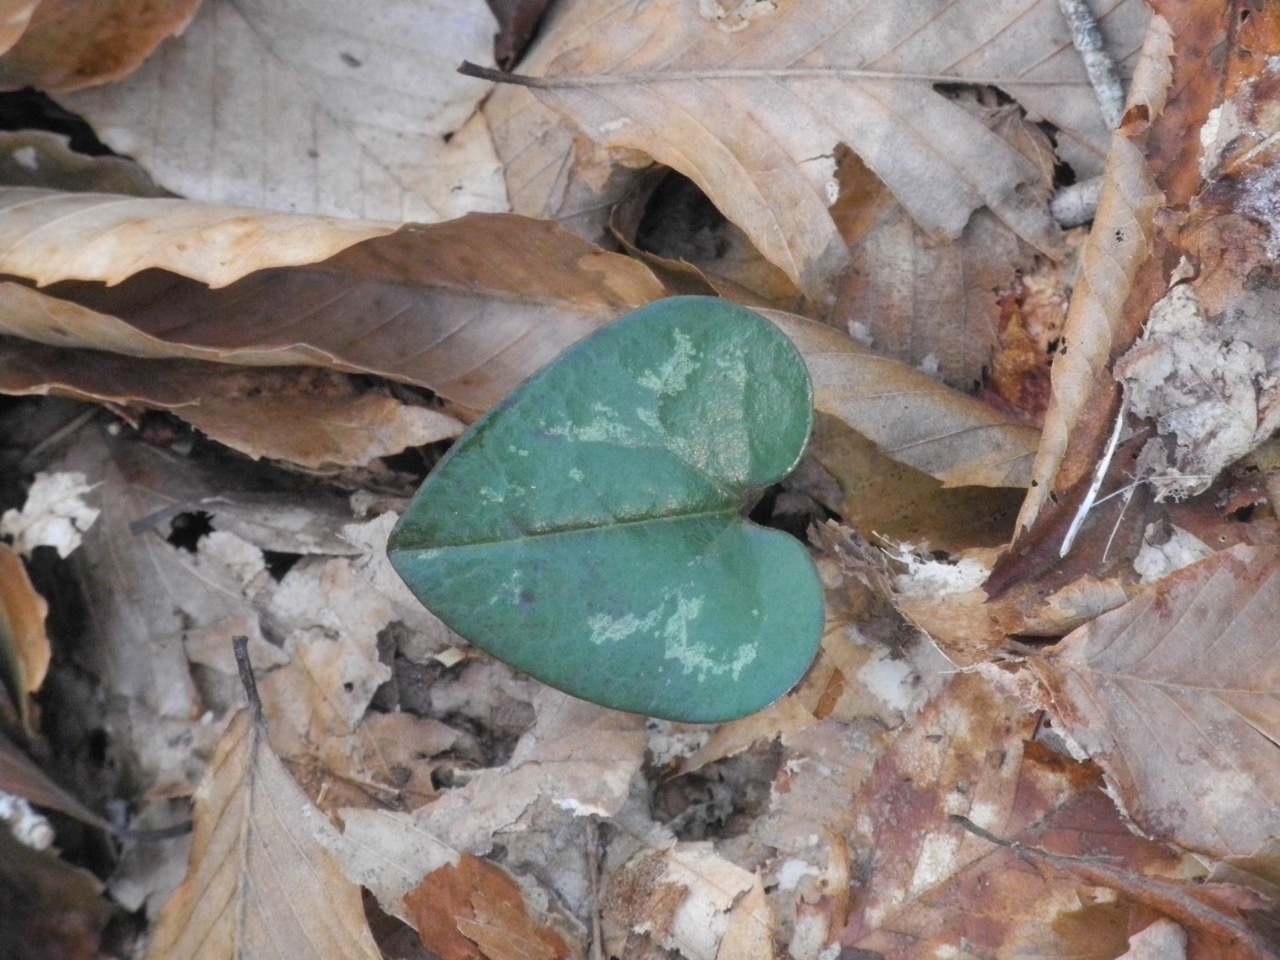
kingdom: Plantae
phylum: Tracheophyta
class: Magnoliopsida
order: Piperales
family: Aristolochiaceae
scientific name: Aristolochiaceae
